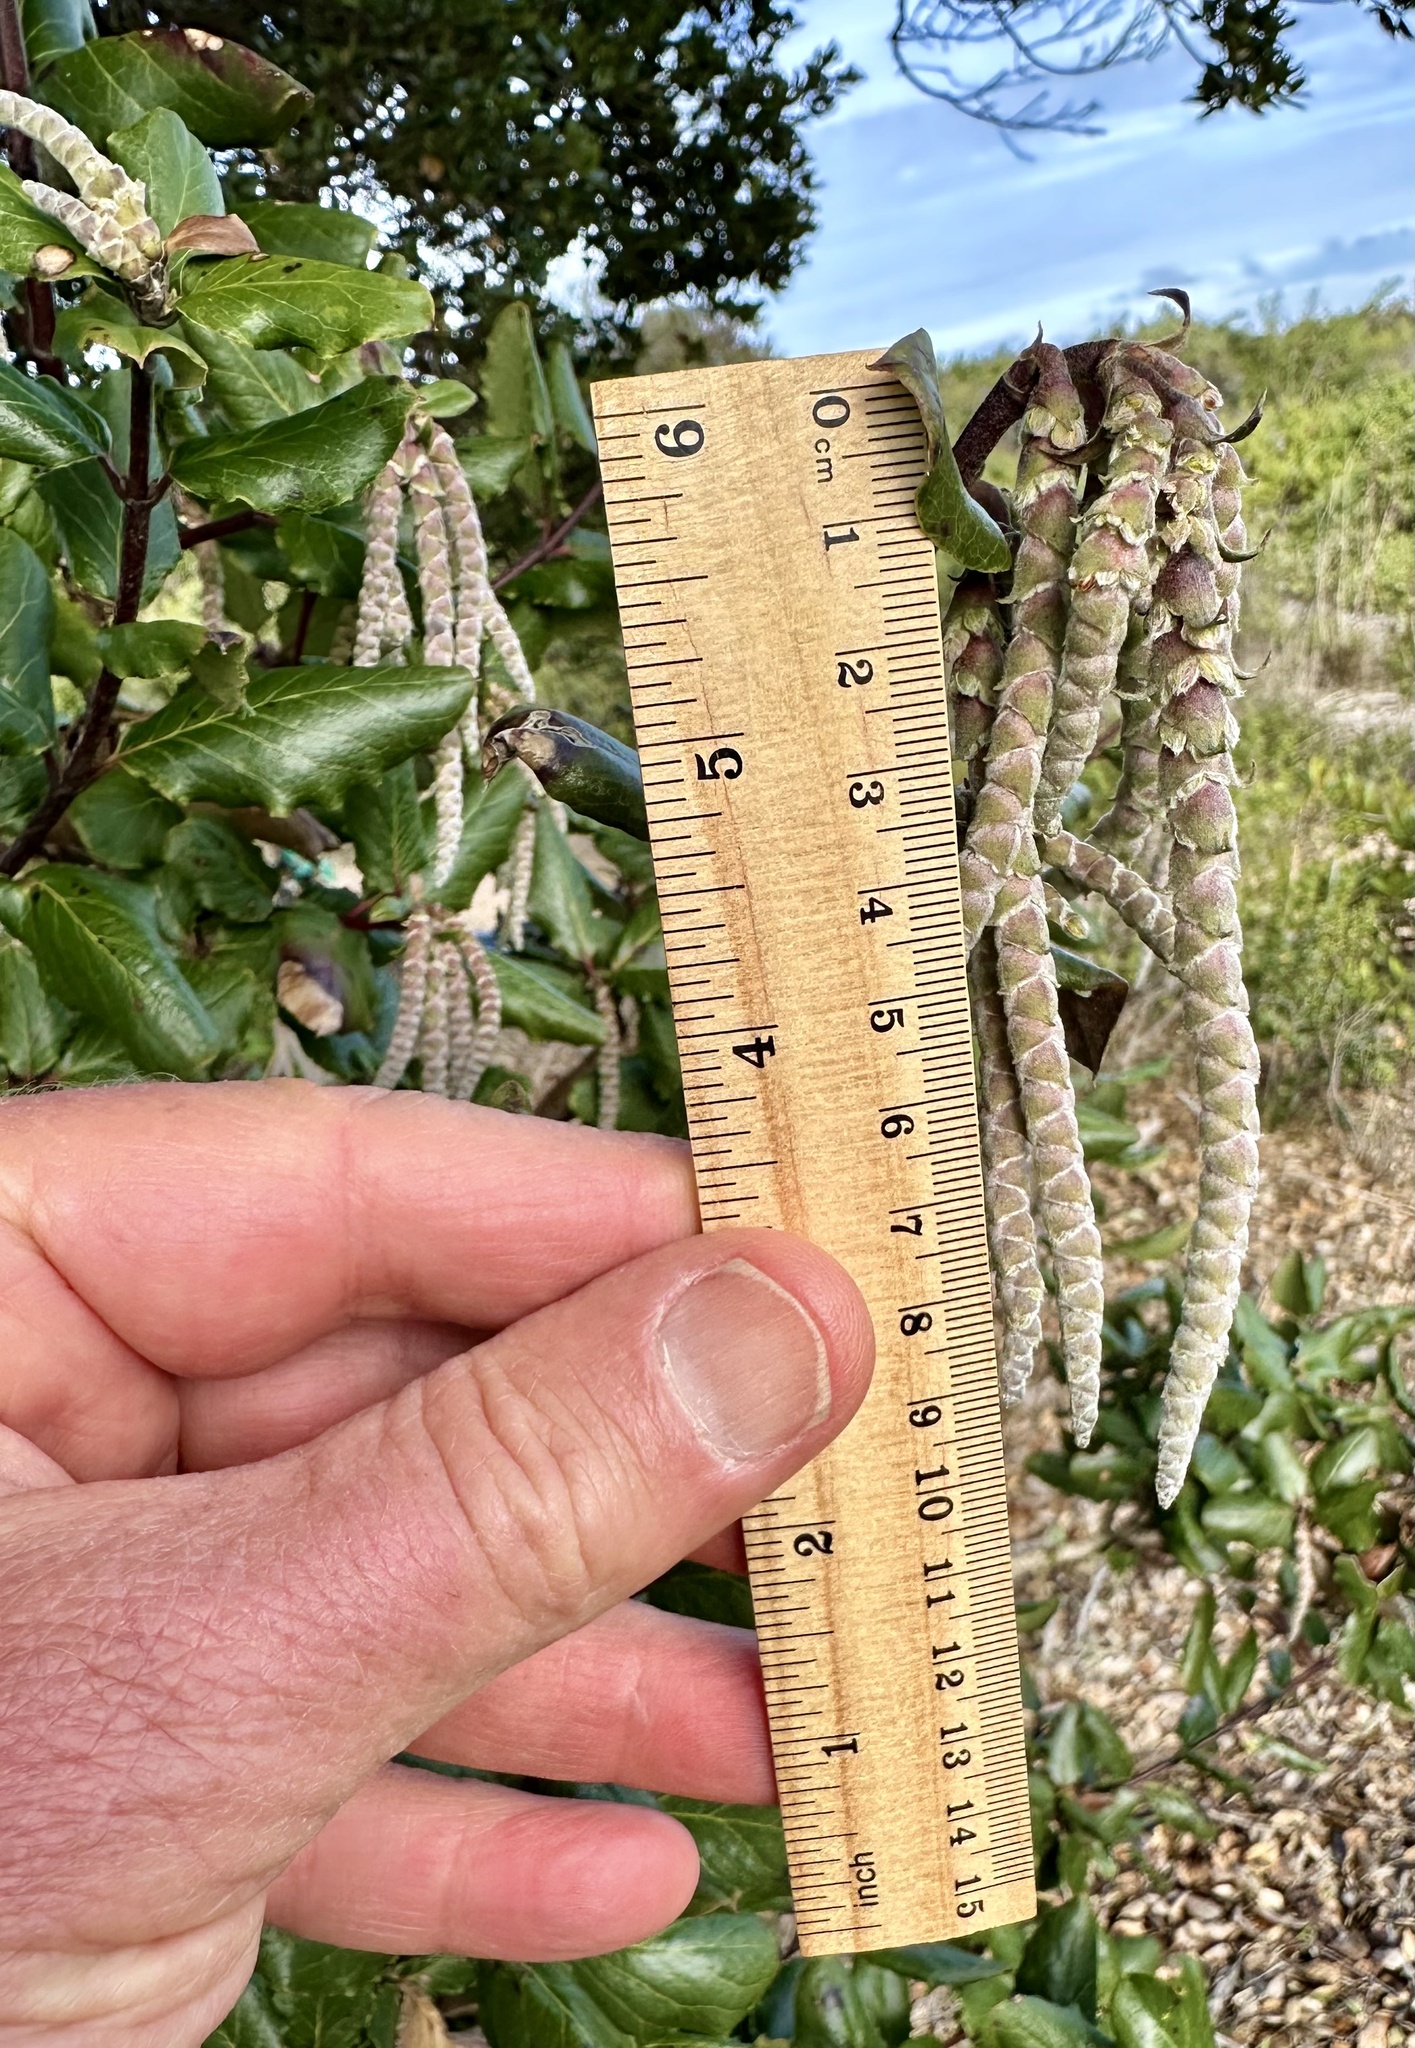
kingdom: Plantae
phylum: Tracheophyta
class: Magnoliopsida
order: Garryales
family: Garryaceae
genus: Garrya
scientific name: Garrya elliptica
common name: Silk-tassel
